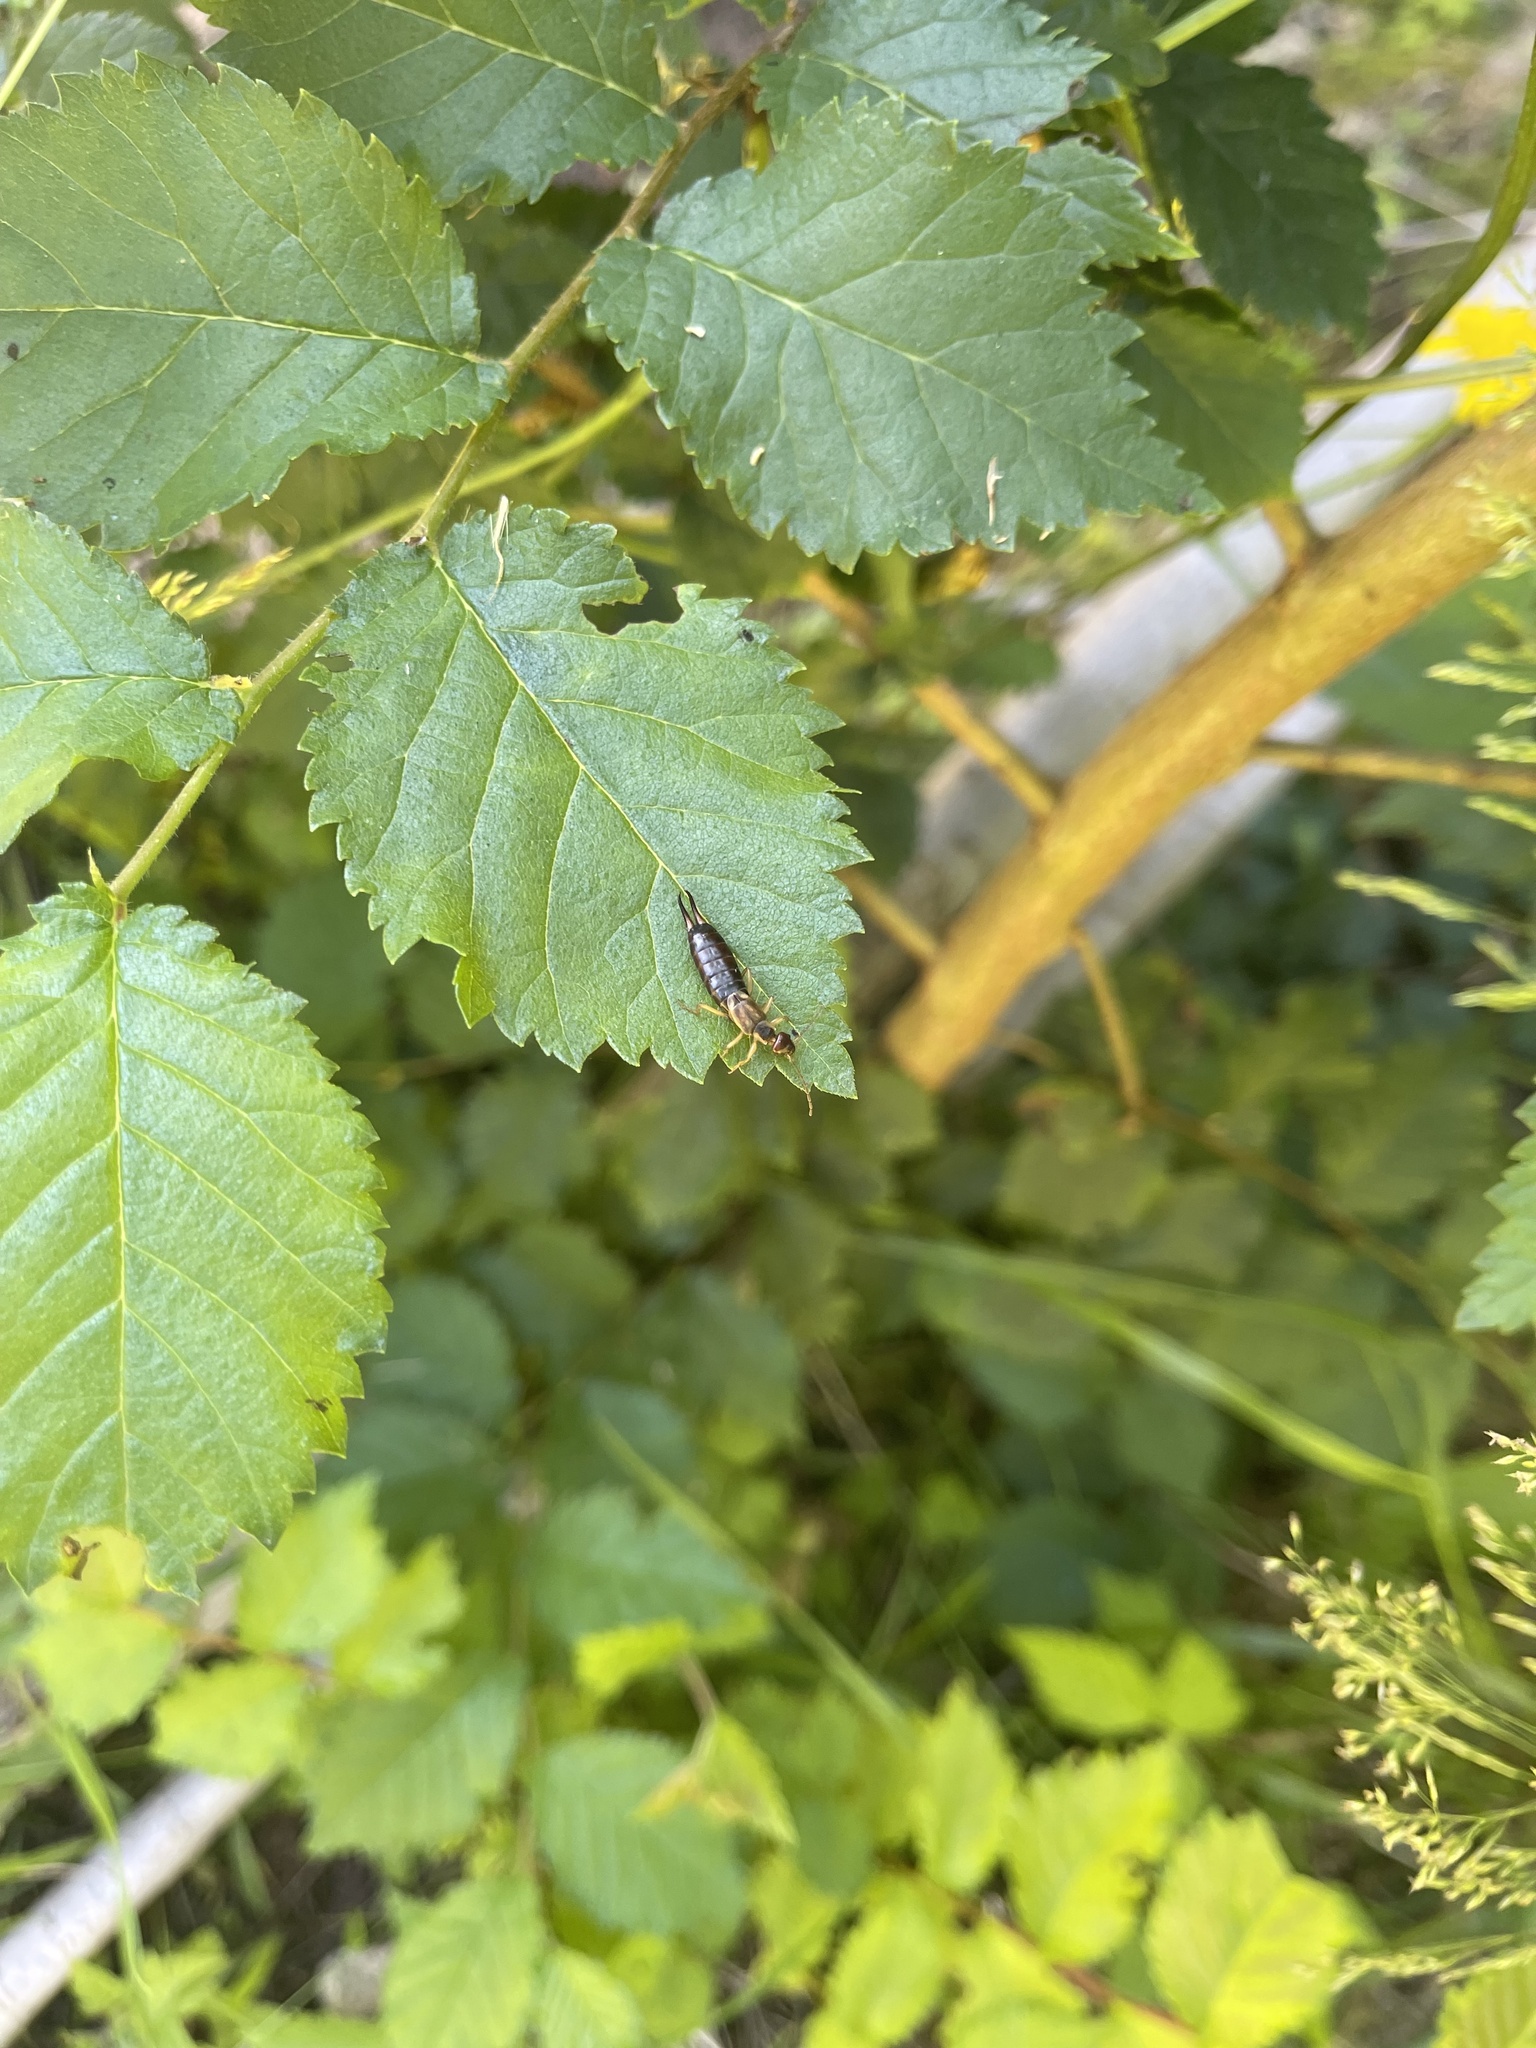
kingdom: Animalia
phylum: Arthropoda
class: Insecta
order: Dermaptera
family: Forficulidae
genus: Forficula
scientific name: Forficula
